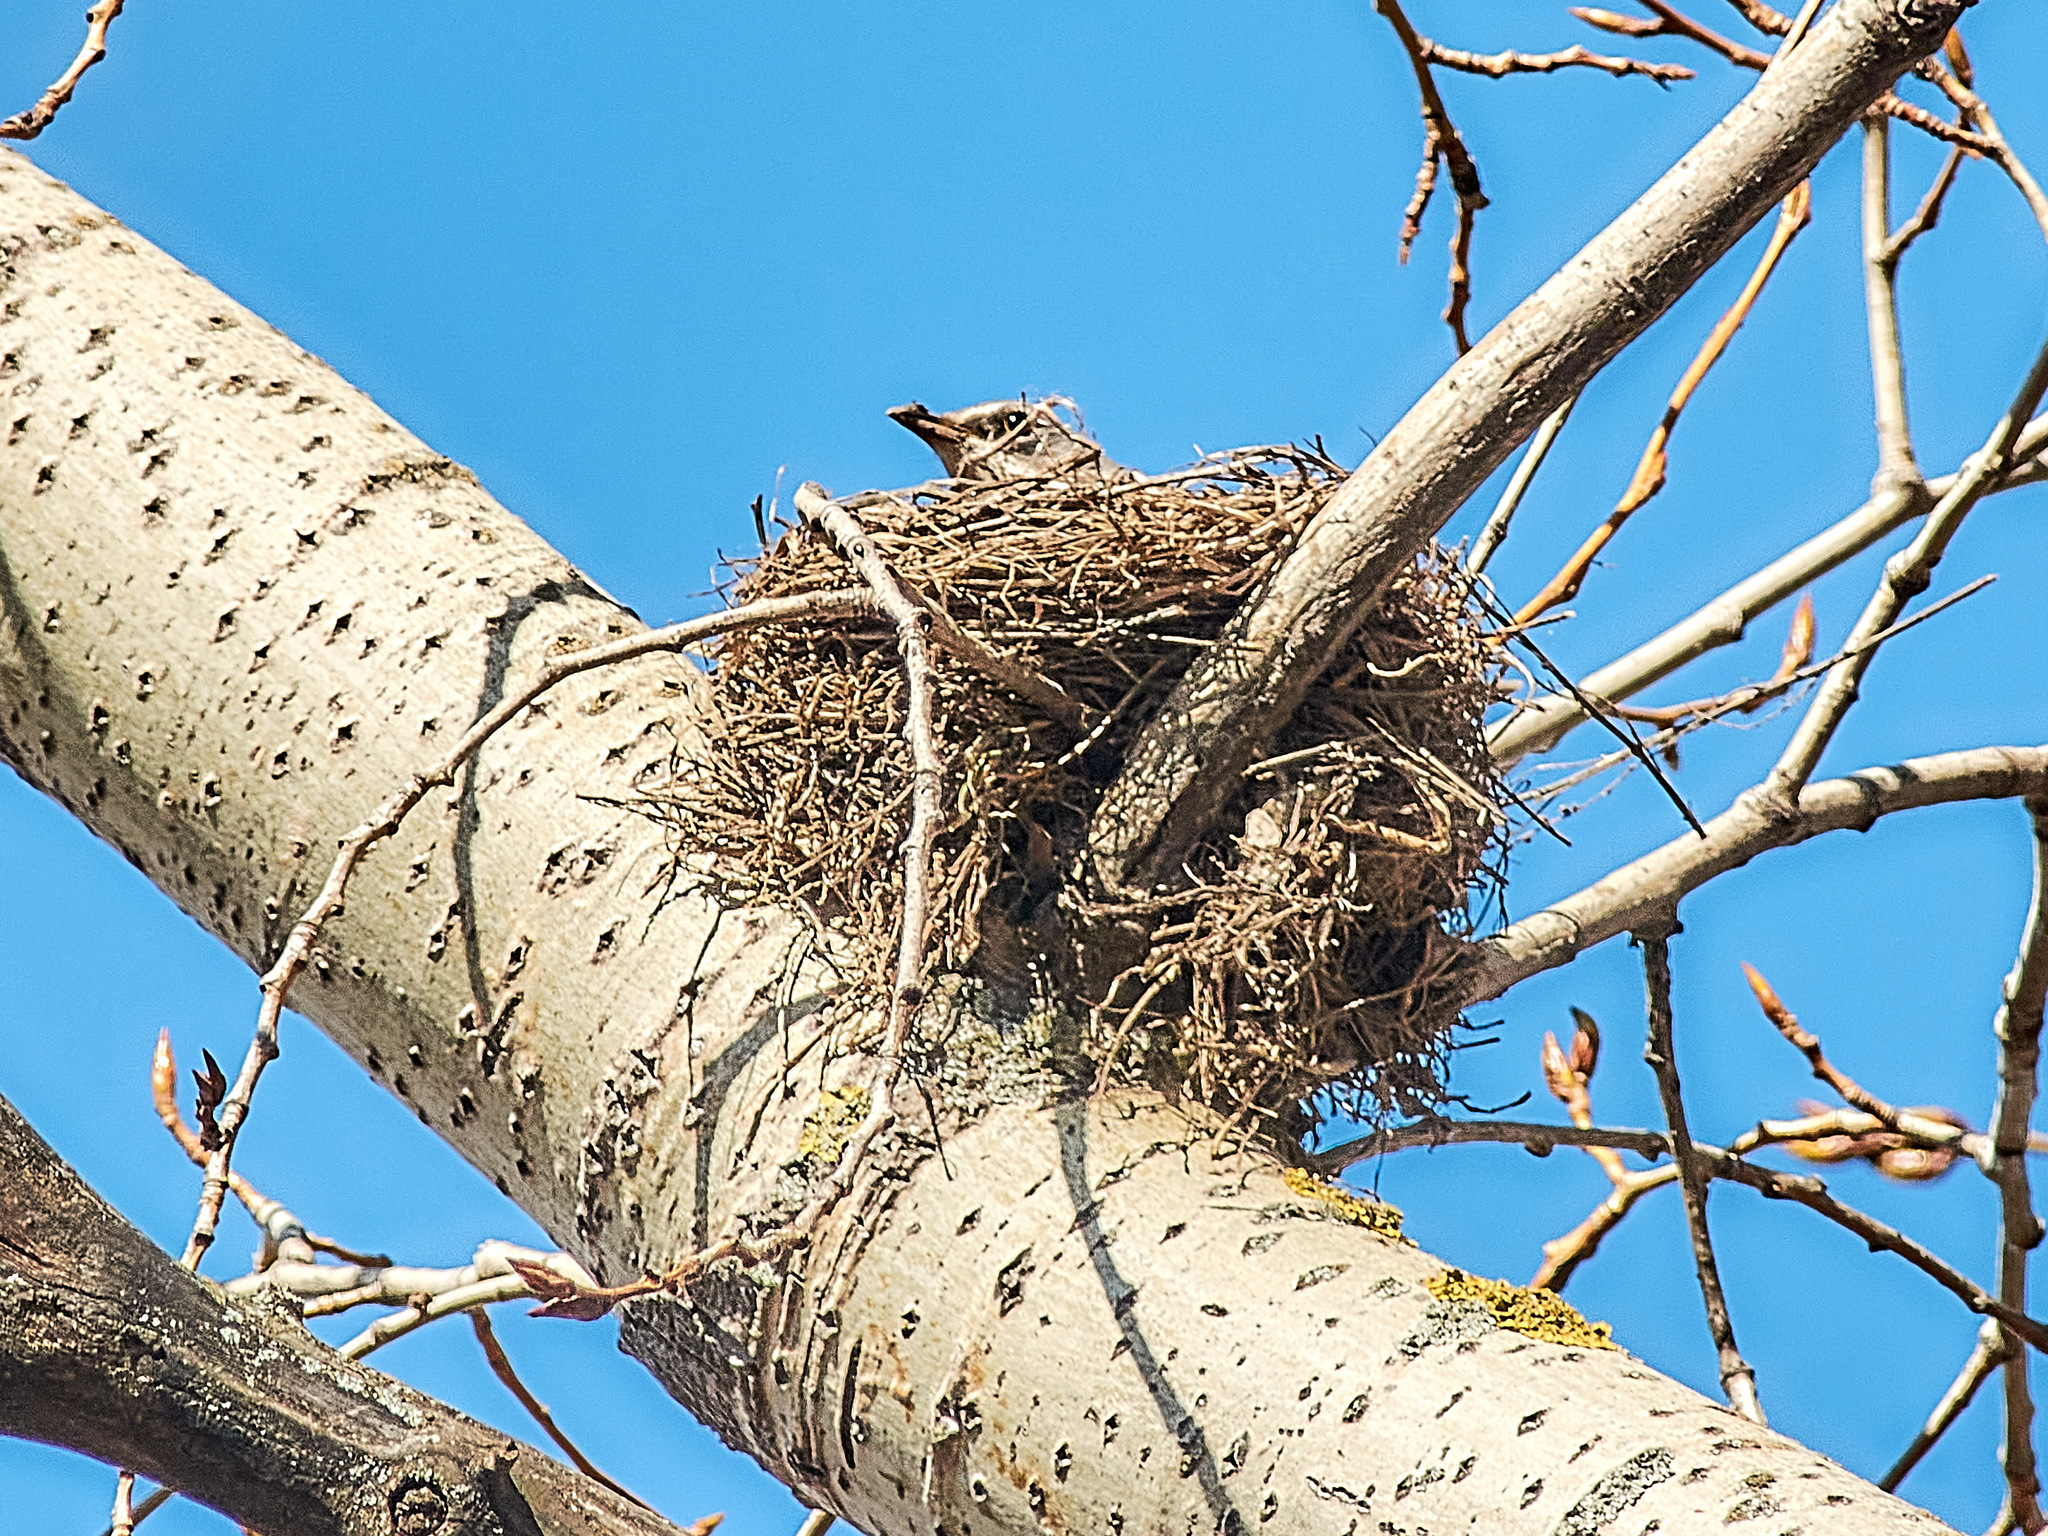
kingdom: Animalia
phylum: Chordata
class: Aves
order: Passeriformes
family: Turdidae
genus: Turdus
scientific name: Turdus pilaris
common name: Fieldfare
